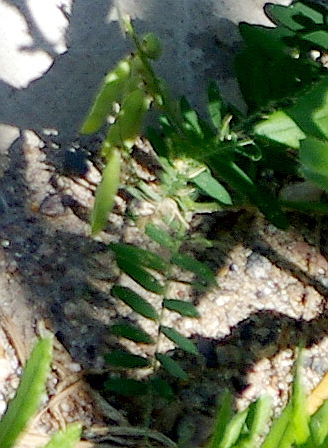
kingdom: Plantae
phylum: Tracheophyta
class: Magnoliopsida
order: Fabales
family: Fabaceae
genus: Vicia
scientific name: Vicia cracca
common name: Bird vetch
